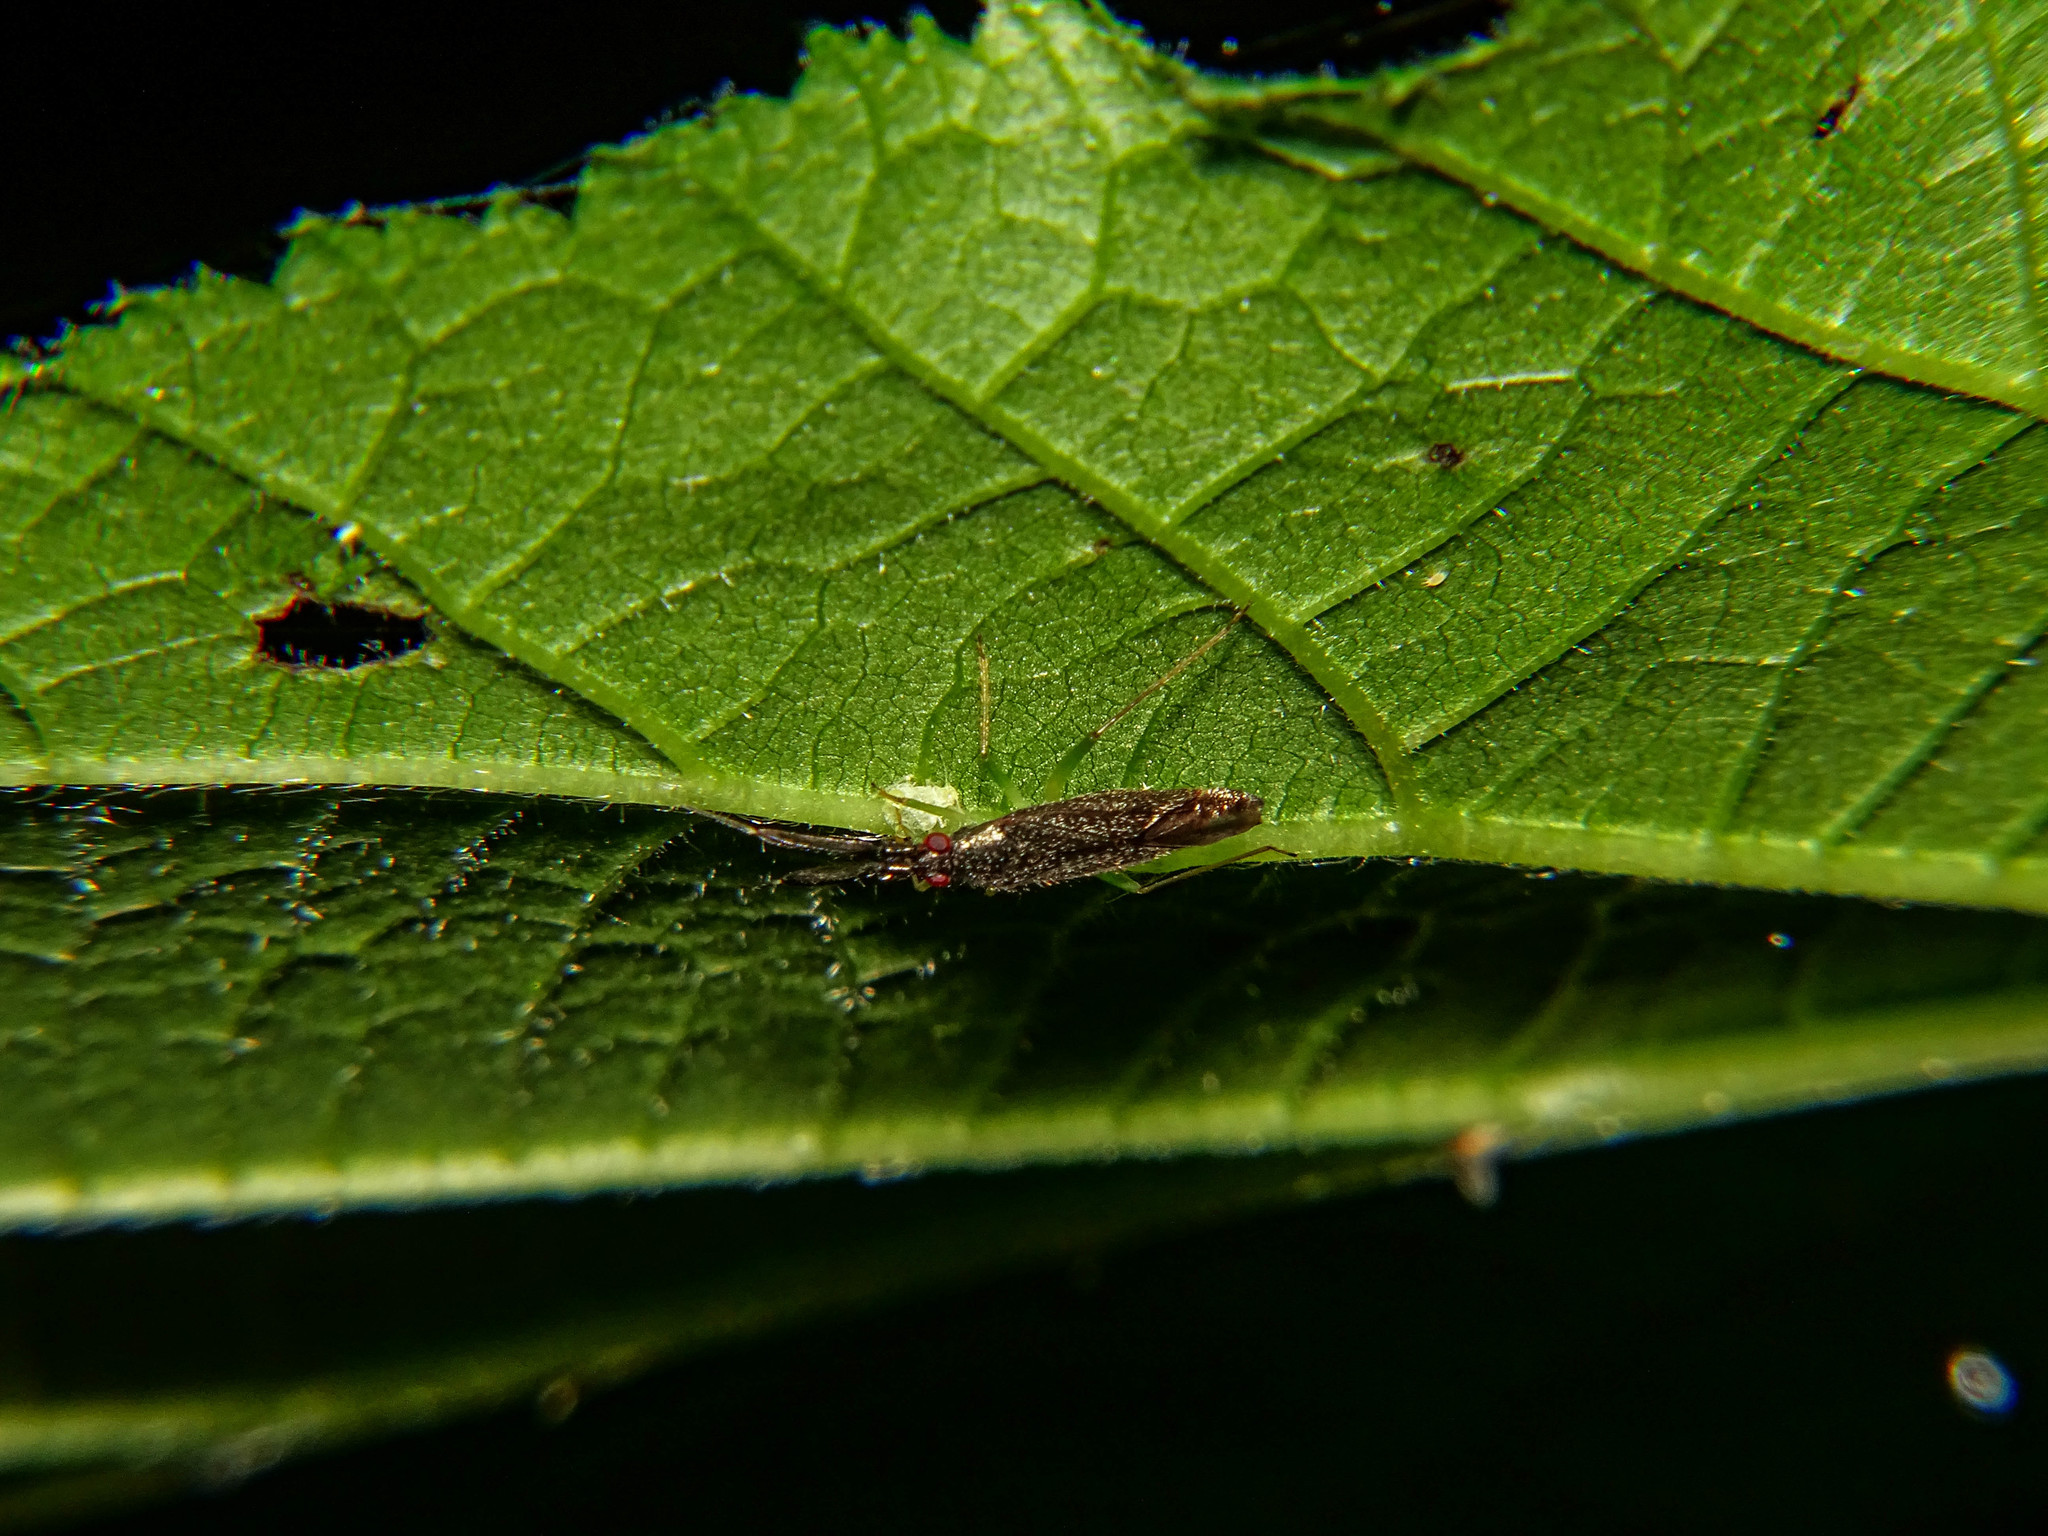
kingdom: Animalia
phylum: Arthropoda
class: Insecta
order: Hemiptera
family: Miridae
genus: Heterotoma
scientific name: Heterotoma planicornis
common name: Plant bug
